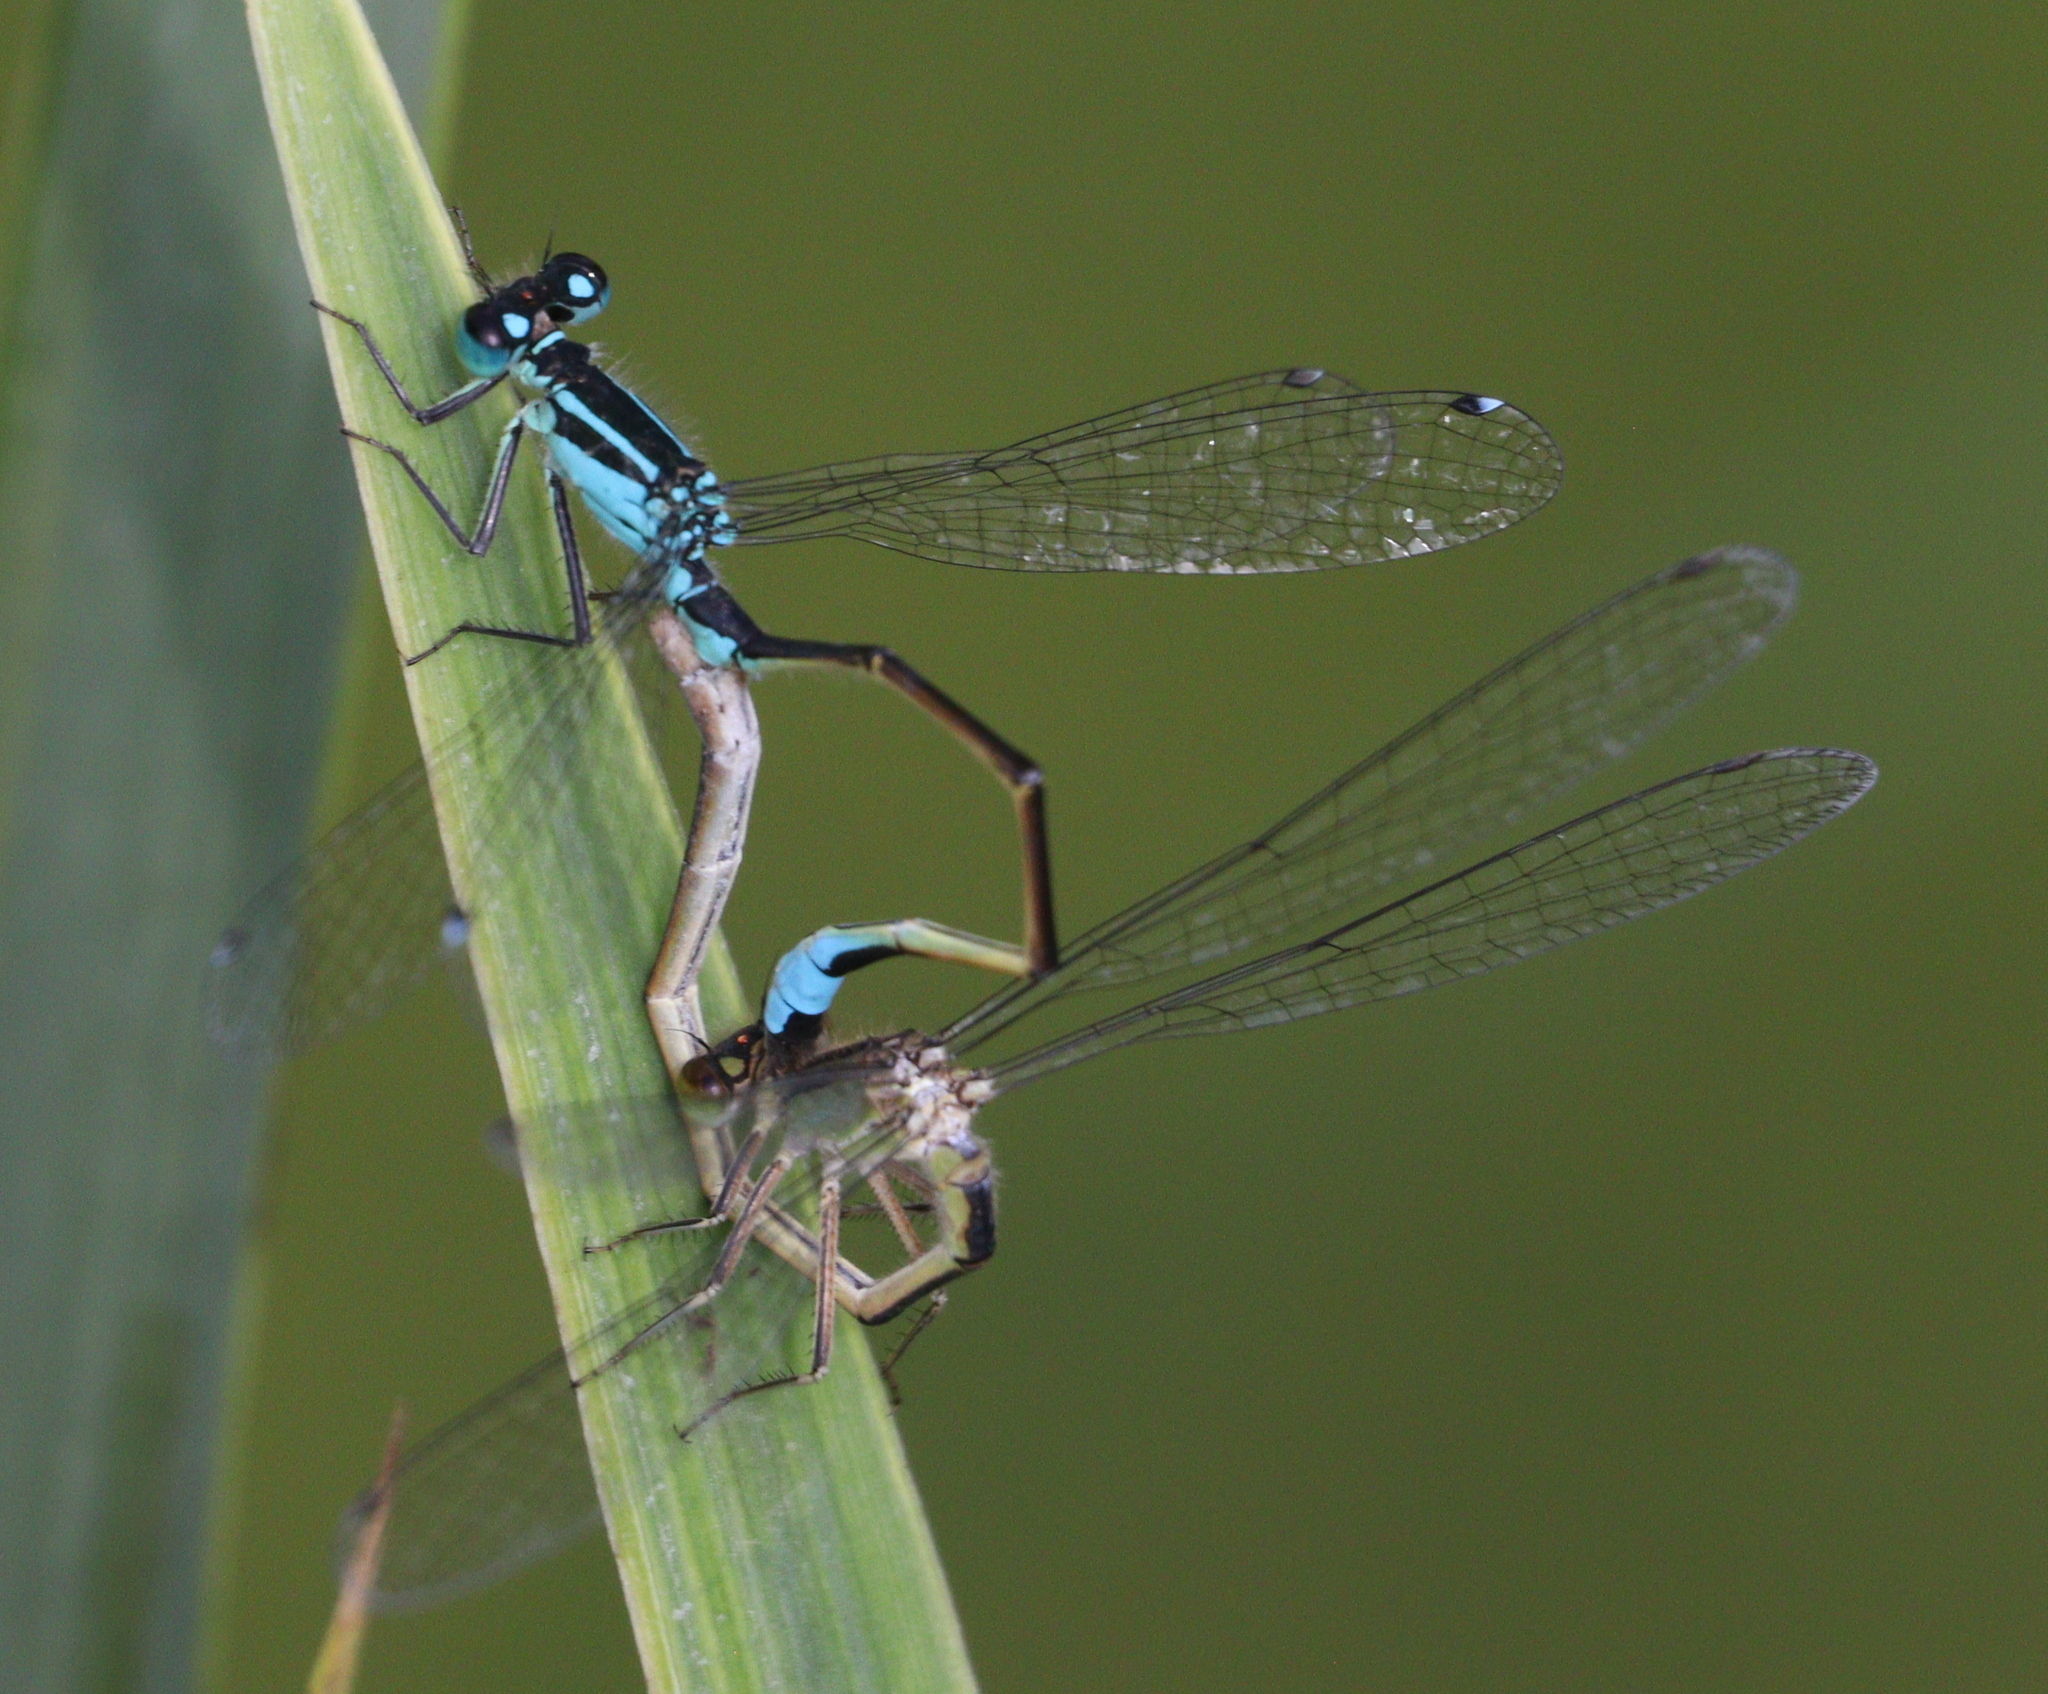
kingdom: Animalia
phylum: Arthropoda
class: Insecta
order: Odonata
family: Coenagrionidae
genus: Ischnura
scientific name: Ischnura elegans
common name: Blue-tailed damselfly
